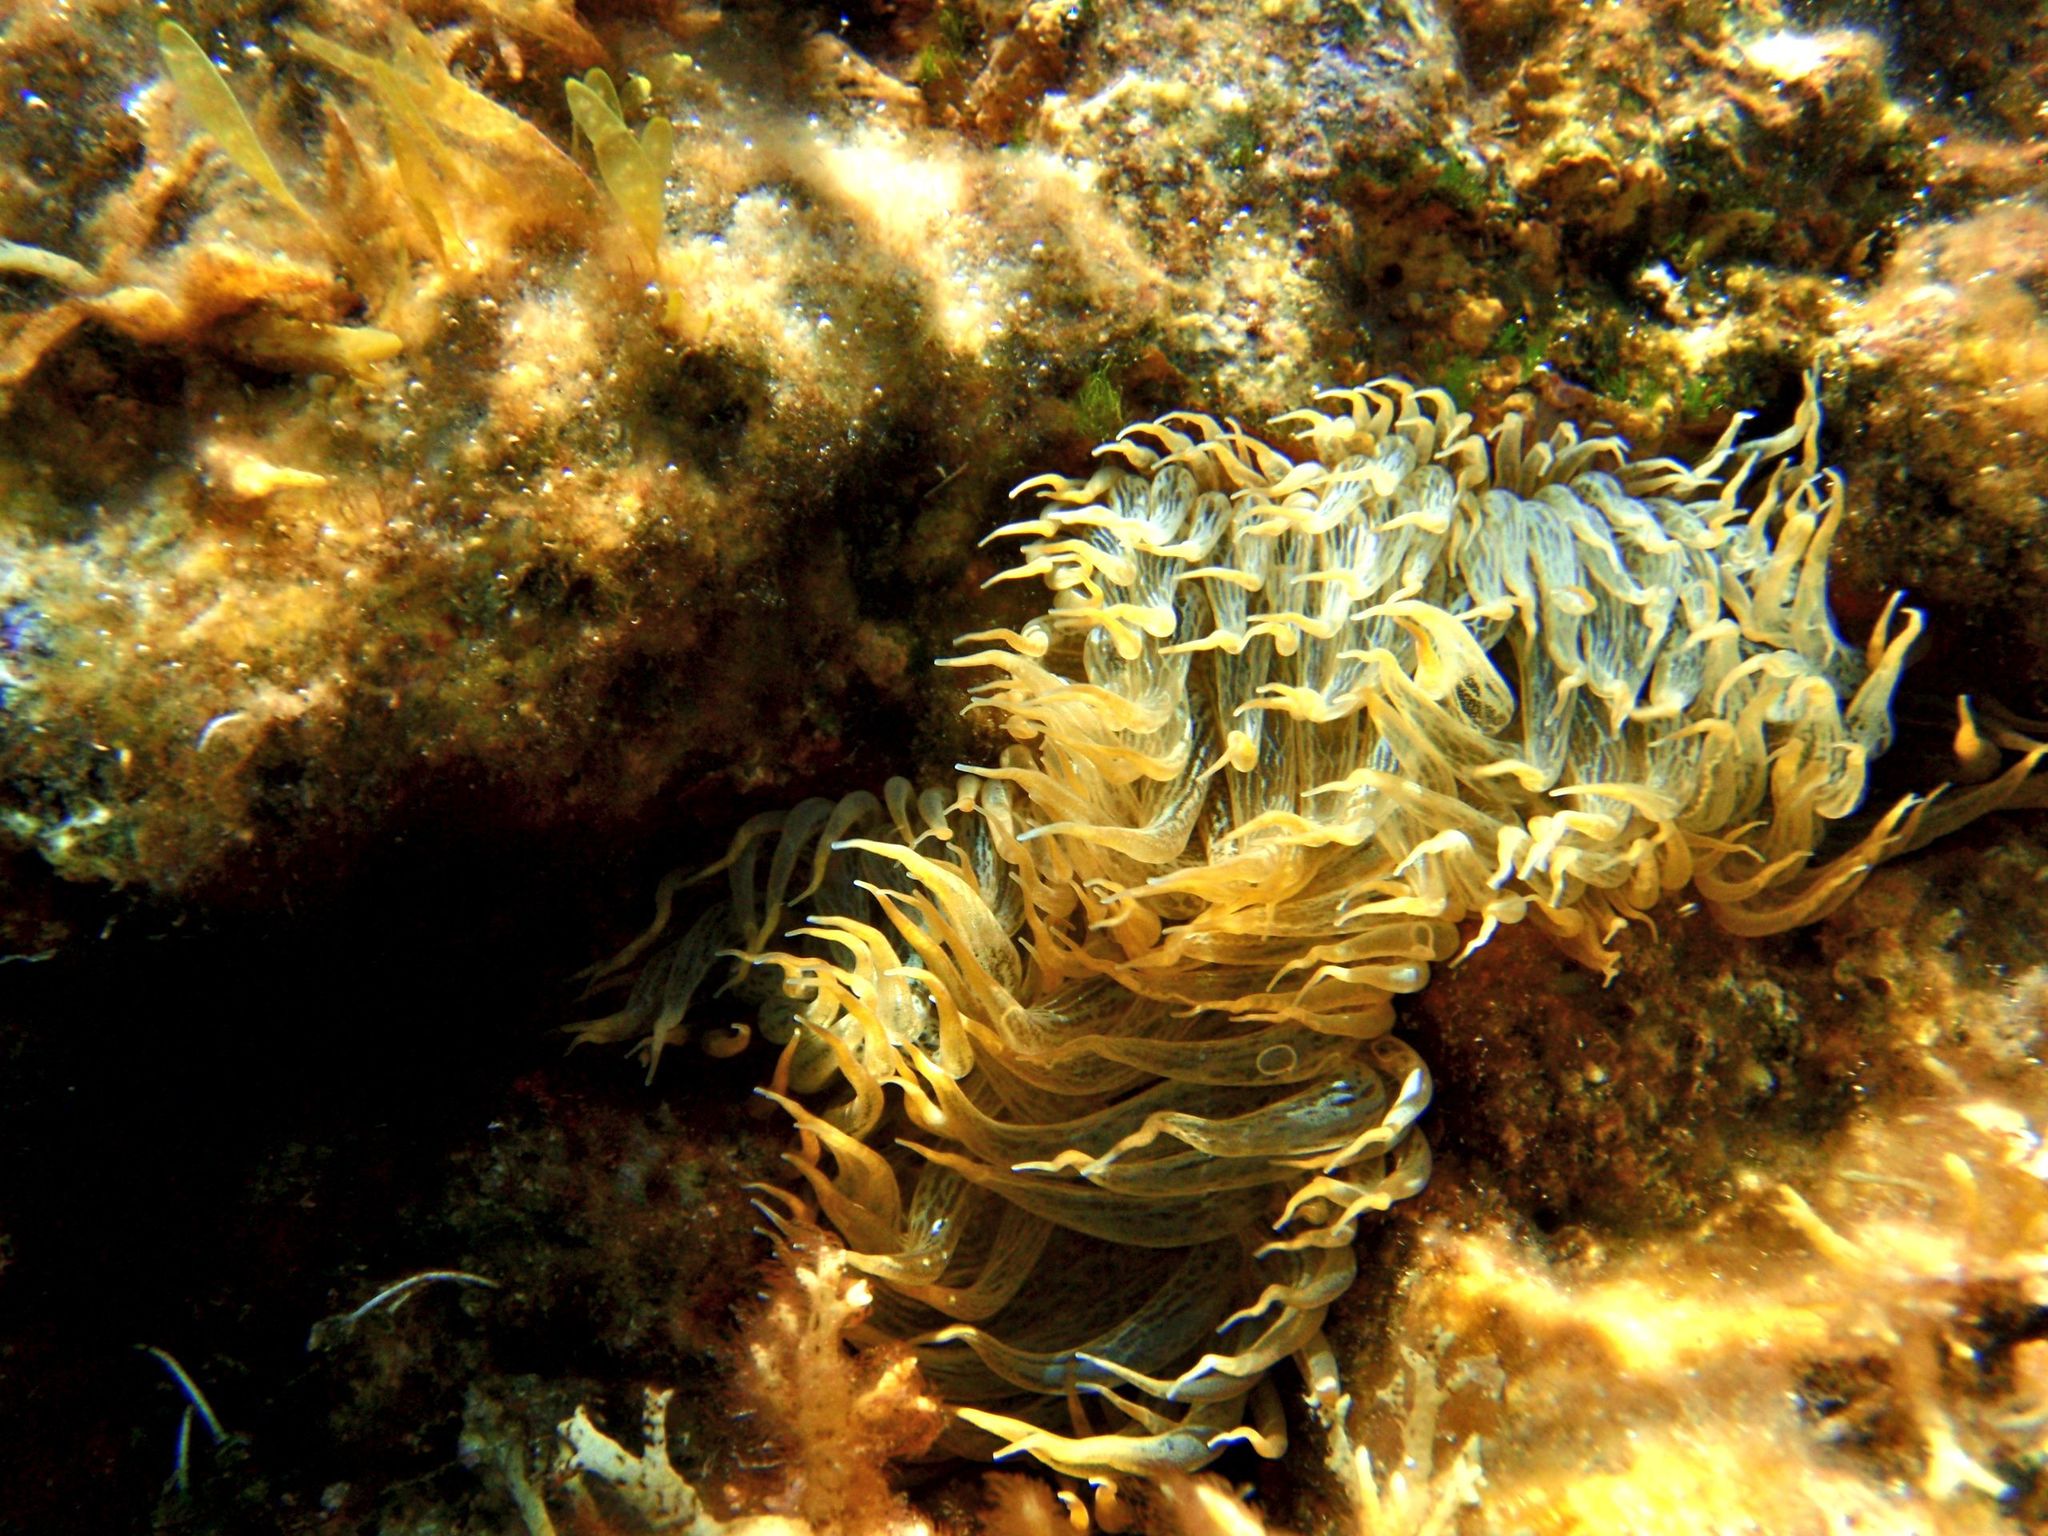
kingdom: Animalia
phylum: Cnidaria
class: Anthozoa
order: Actiniaria
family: Aiptasiidae
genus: Aiptasia
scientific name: Aiptasia mutabilis
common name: Trumpet anemone
